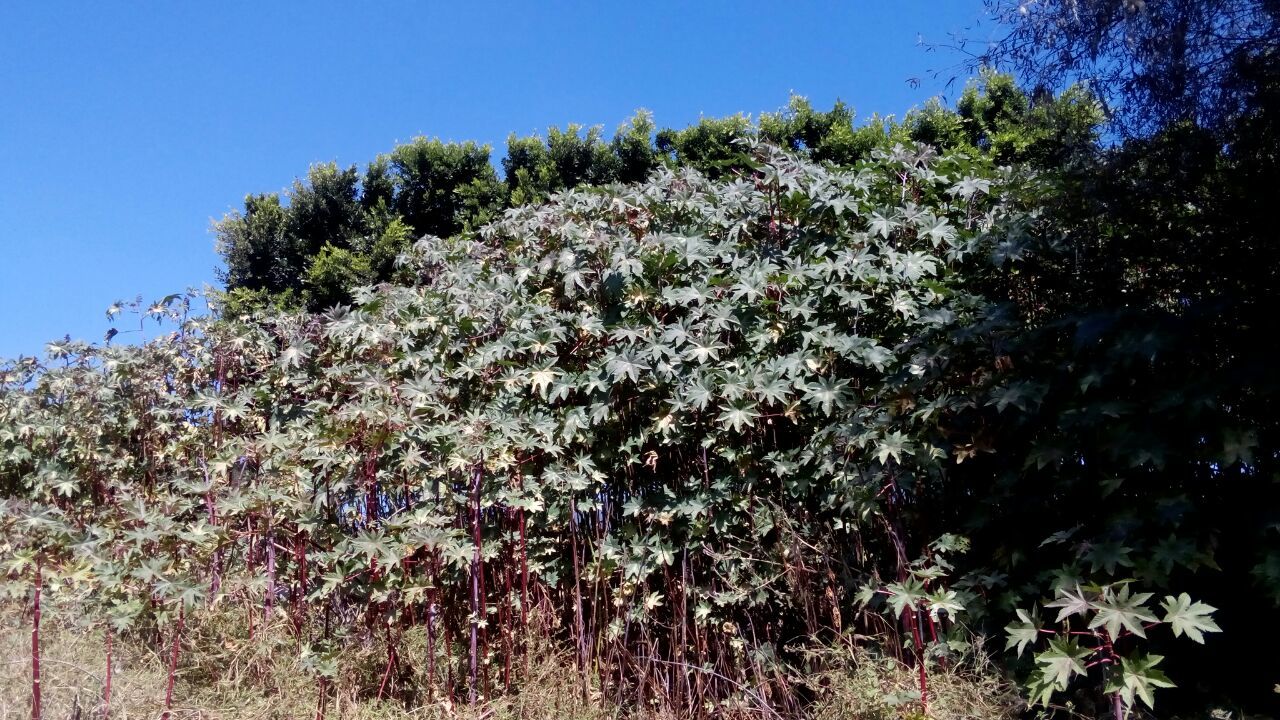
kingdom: Plantae
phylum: Tracheophyta
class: Magnoliopsida
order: Malpighiales
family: Euphorbiaceae
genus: Ricinus
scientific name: Ricinus communis
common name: Castor-oil-plant
